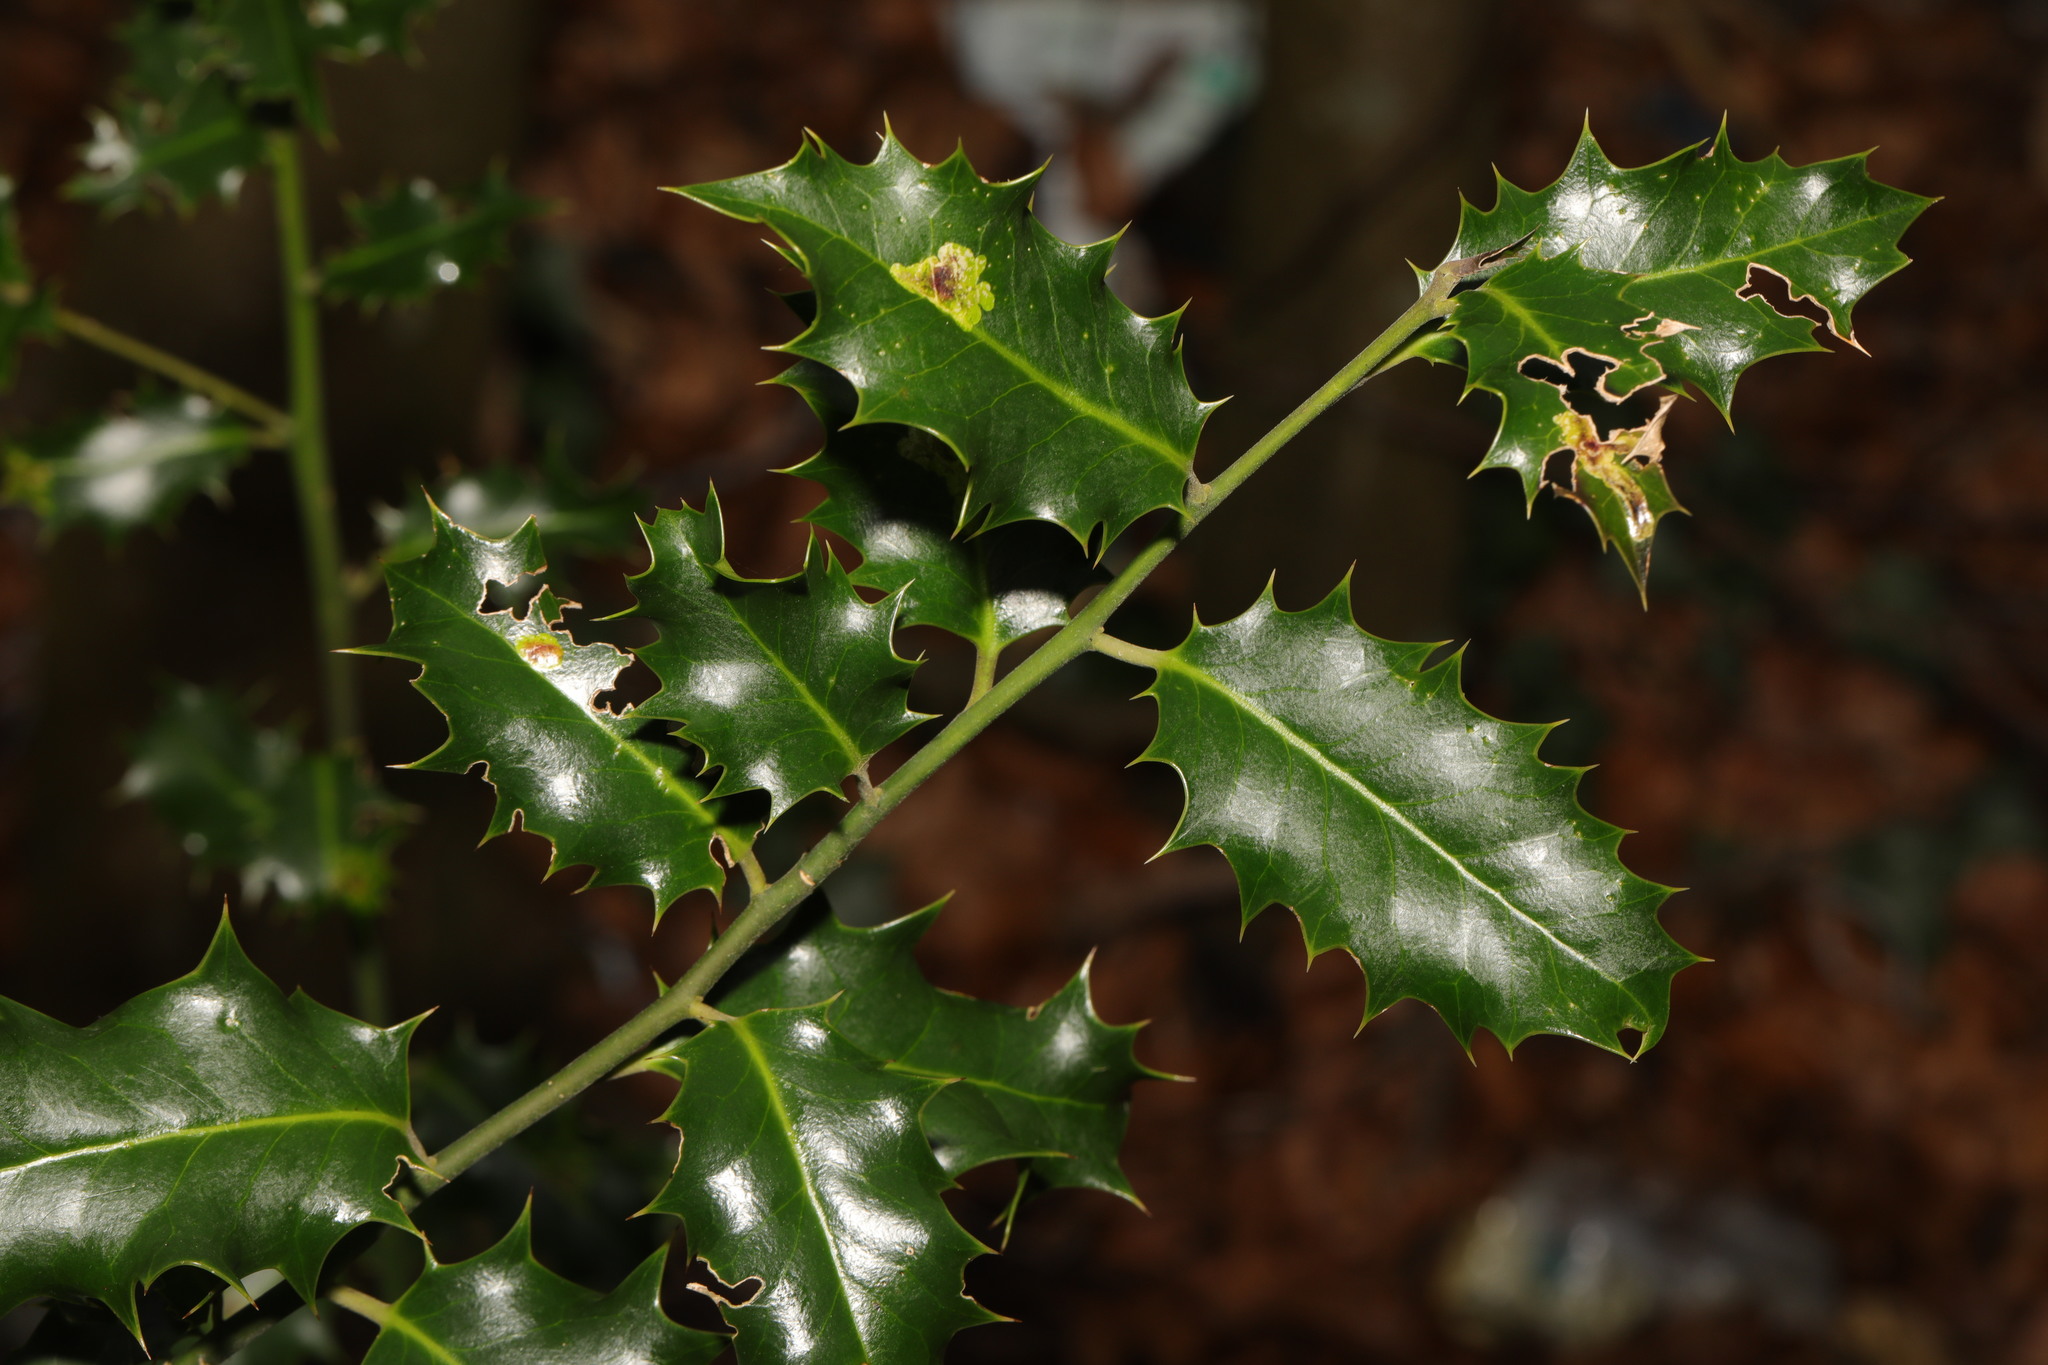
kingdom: Plantae
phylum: Tracheophyta
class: Magnoliopsida
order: Aquifoliales
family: Aquifoliaceae
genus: Ilex
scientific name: Ilex aquifolium
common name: English holly
